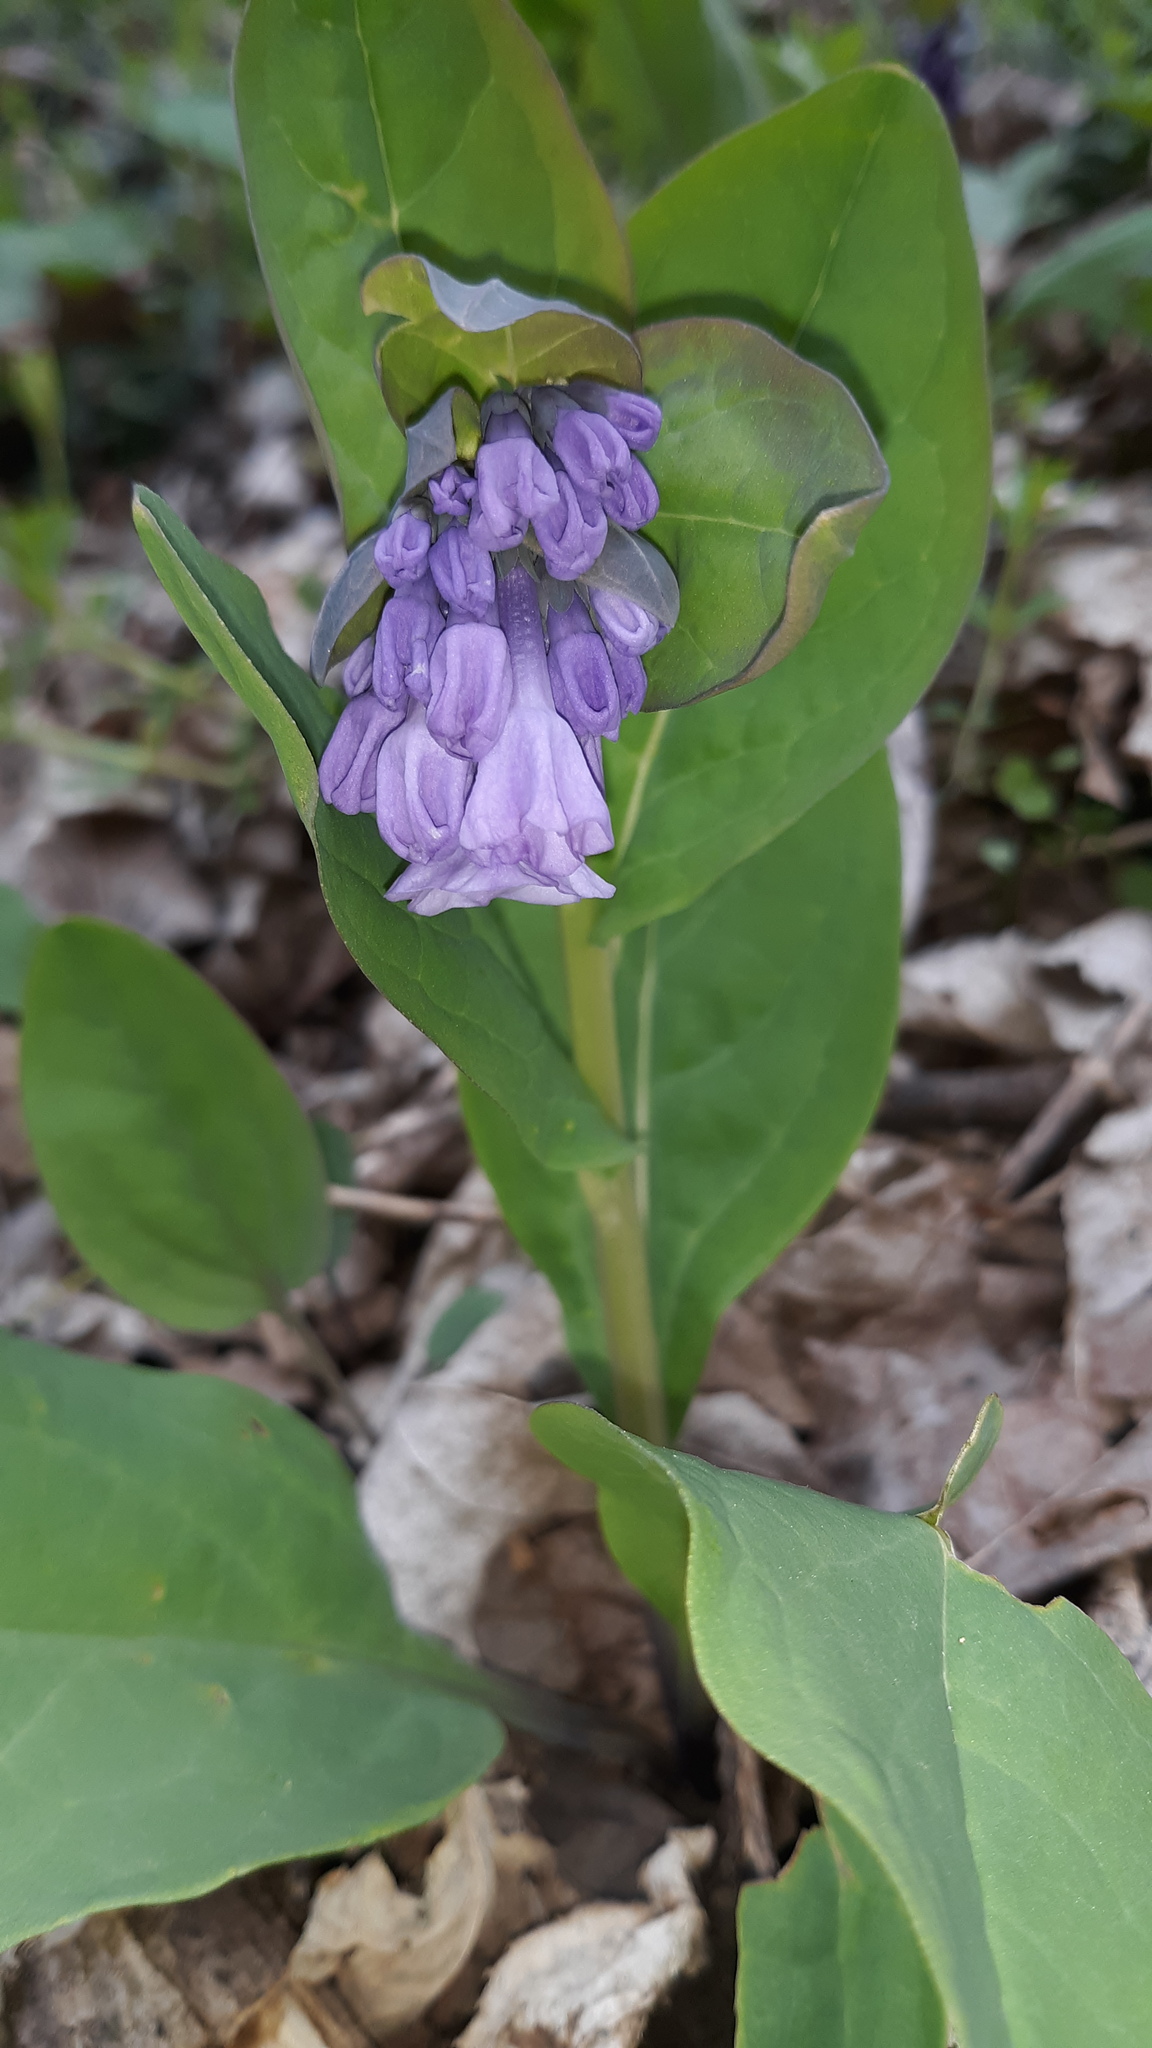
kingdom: Plantae
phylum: Tracheophyta
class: Magnoliopsida
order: Boraginales
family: Boraginaceae
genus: Mertensia
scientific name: Mertensia virginica
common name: Virginia bluebells
